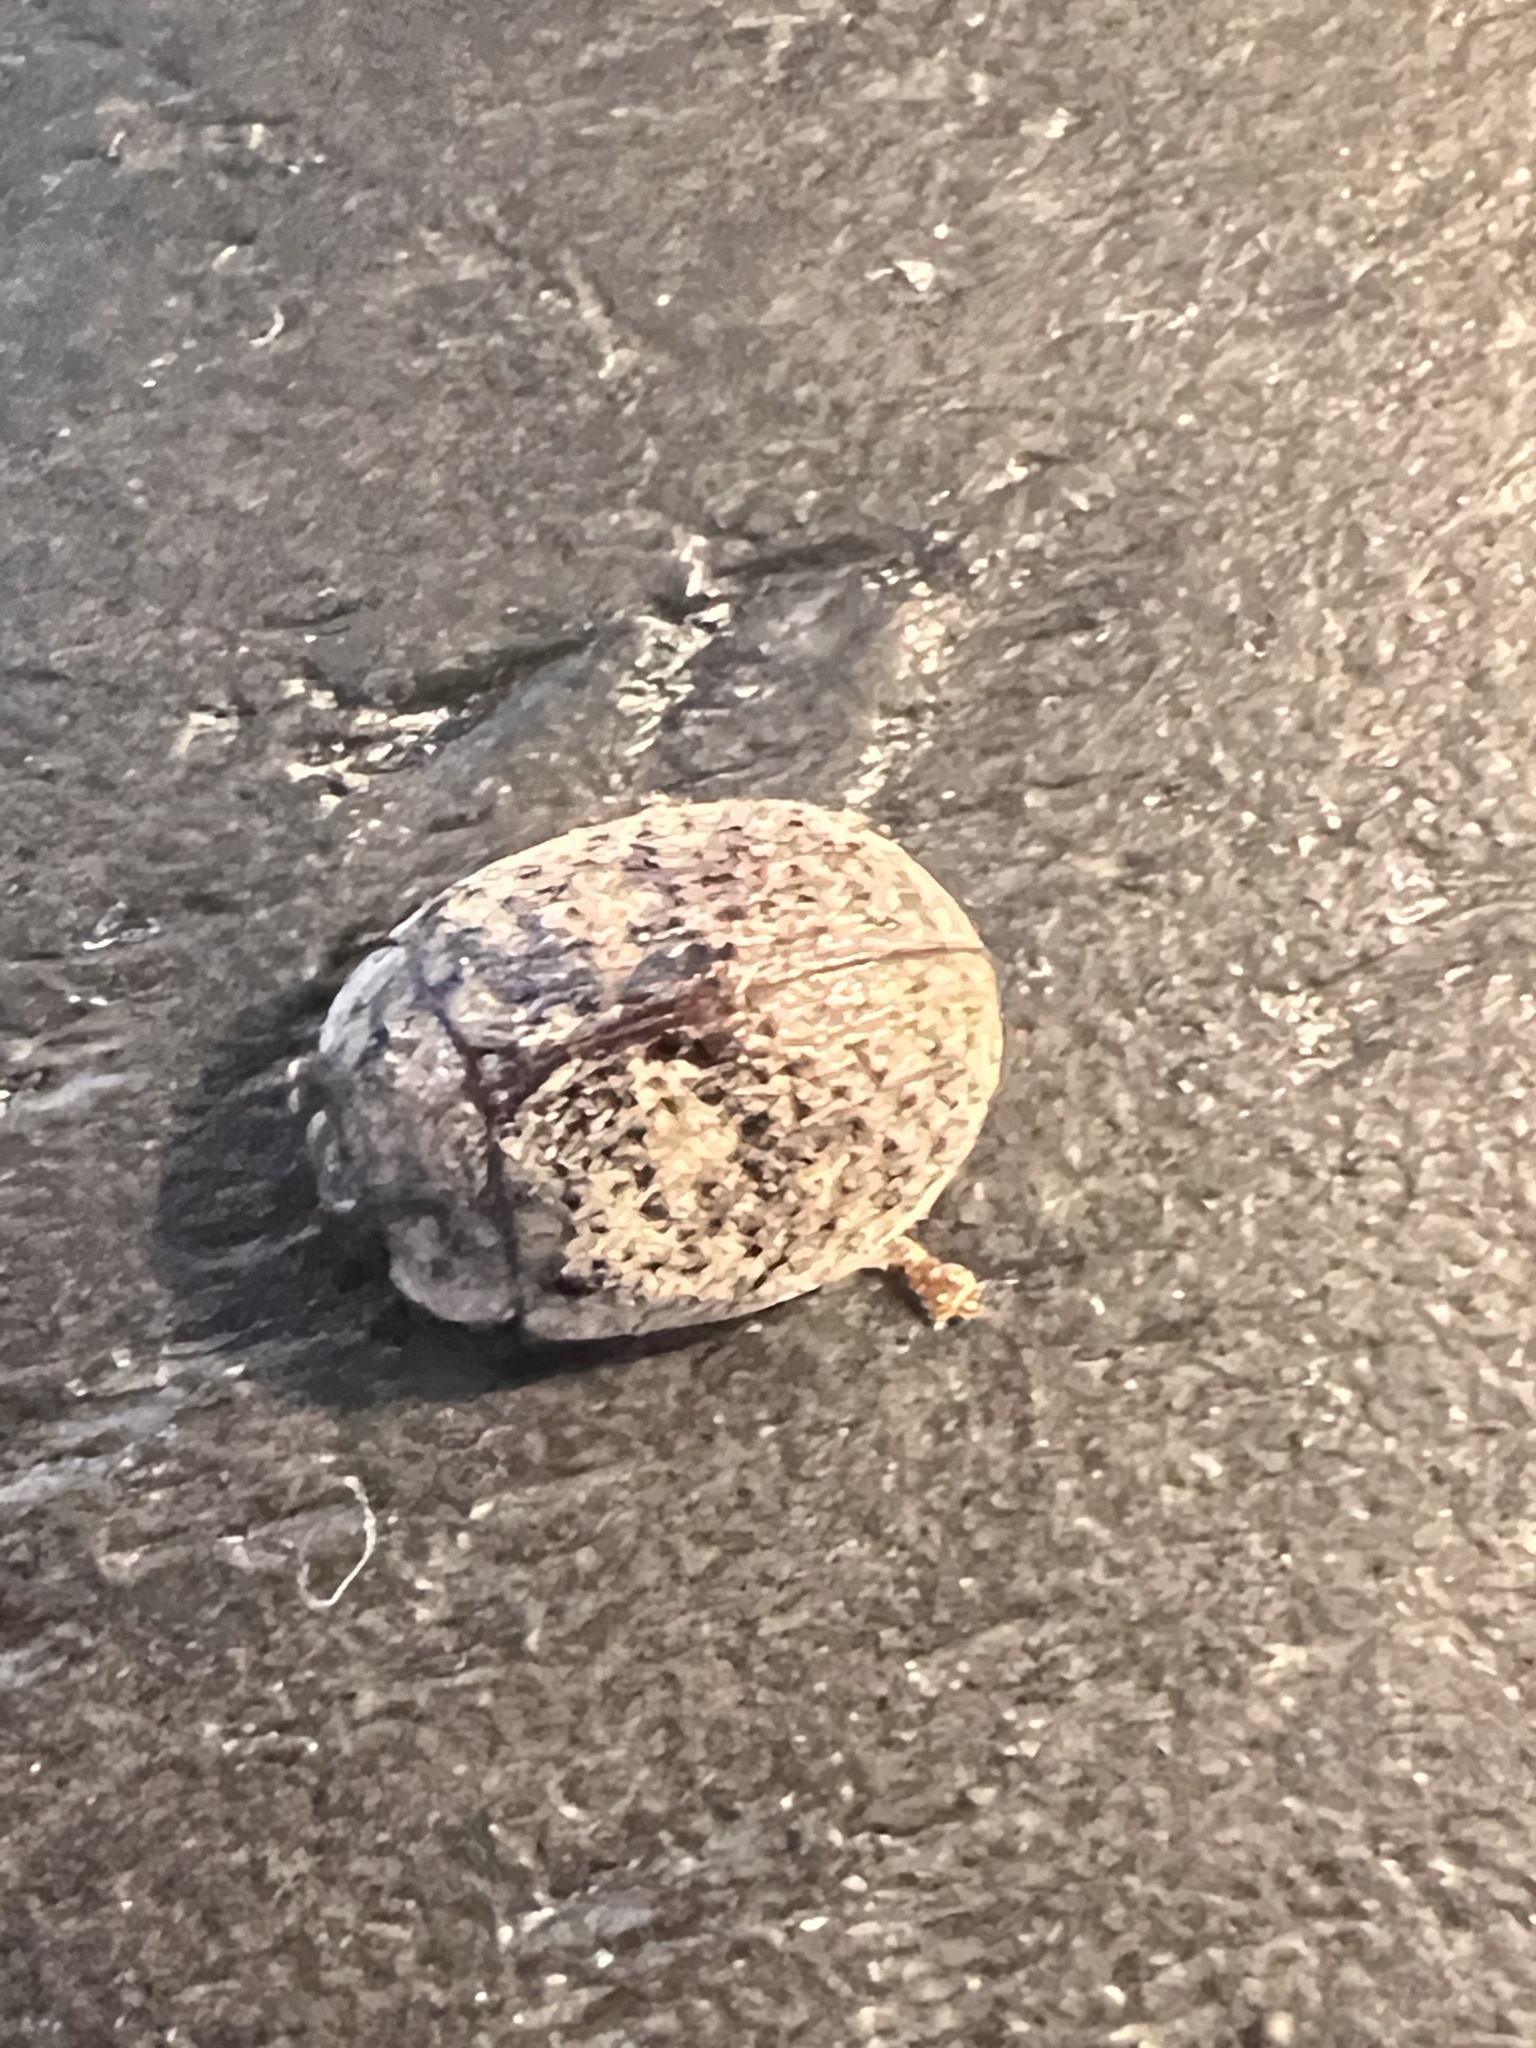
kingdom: Animalia
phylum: Arthropoda
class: Insecta
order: Coleoptera
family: Chrysomelidae
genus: Trachymela
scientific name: Trachymela sloanei
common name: Australian tortoise beetle
